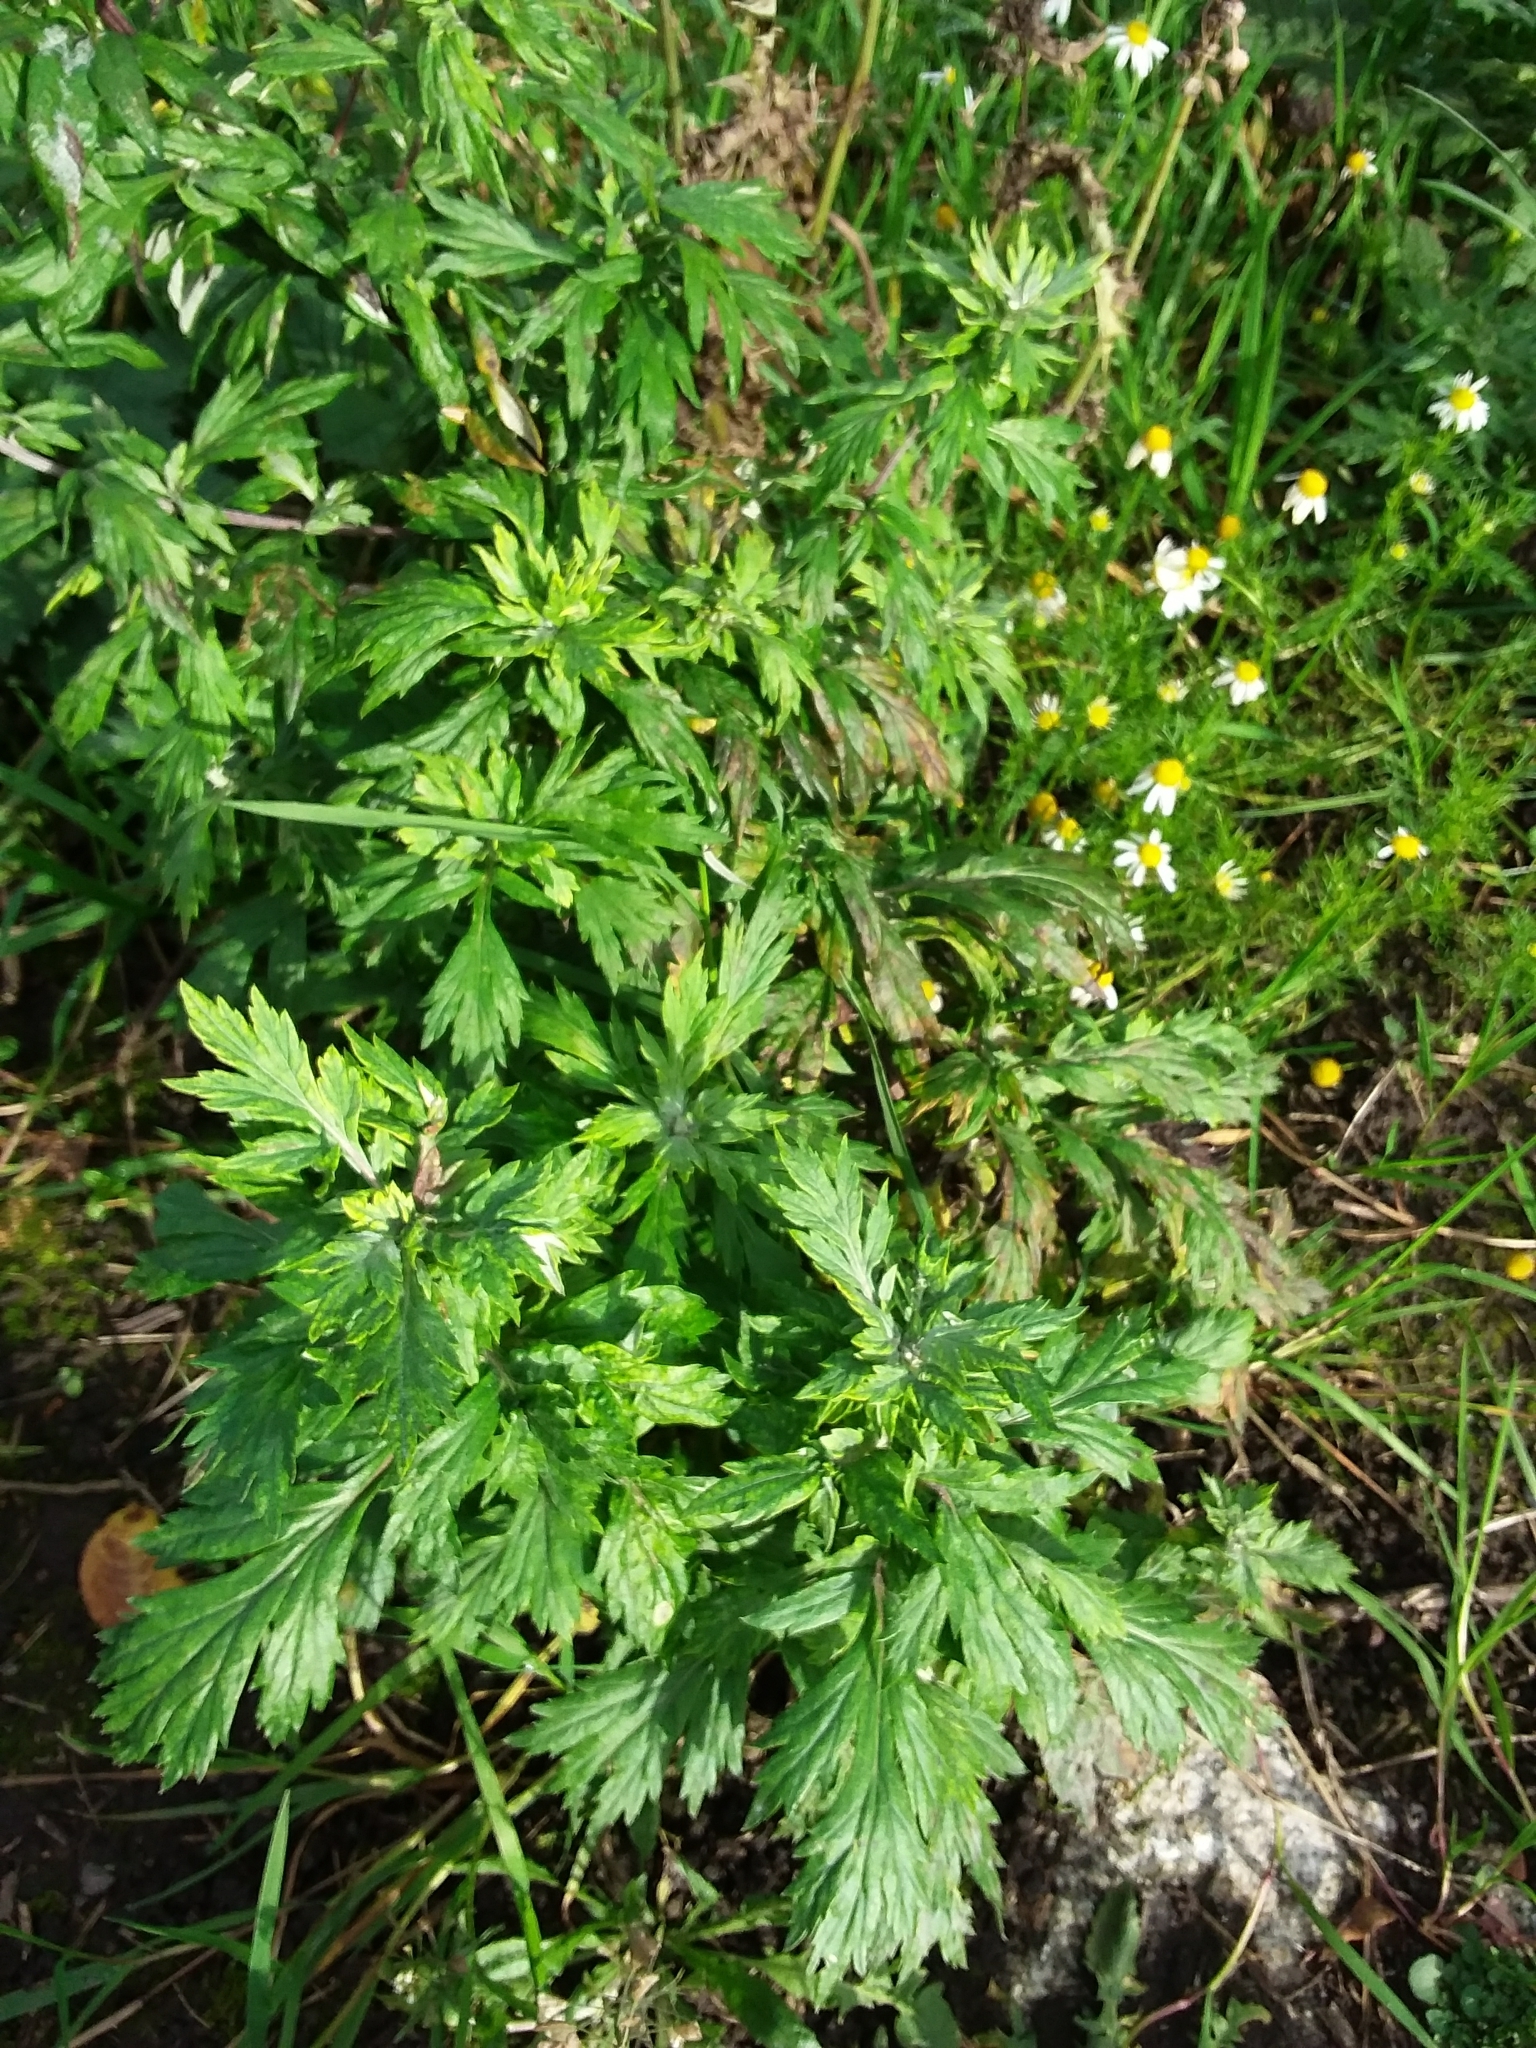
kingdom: Plantae
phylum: Tracheophyta
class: Magnoliopsida
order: Asterales
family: Asteraceae
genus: Artemisia
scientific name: Artemisia vulgaris
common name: Mugwort
